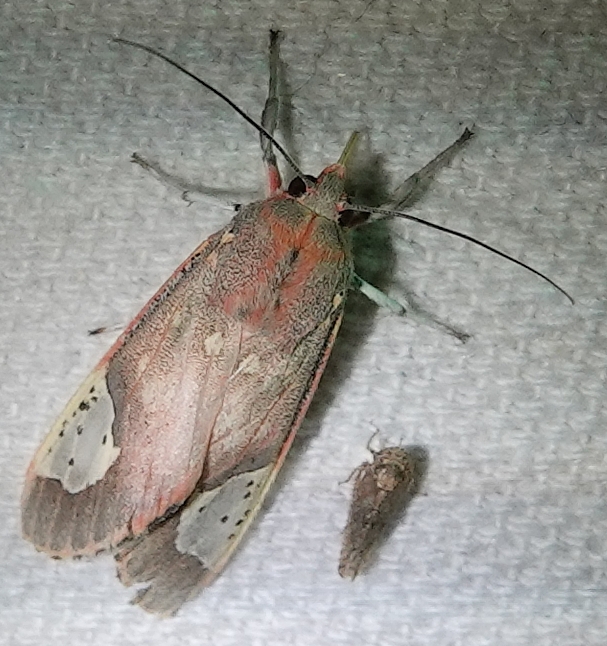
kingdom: Animalia
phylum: Arthropoda
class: Insecta
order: Lepidoptera
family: Erebidae
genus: Bertholdia
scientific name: Bertholdia trigona
